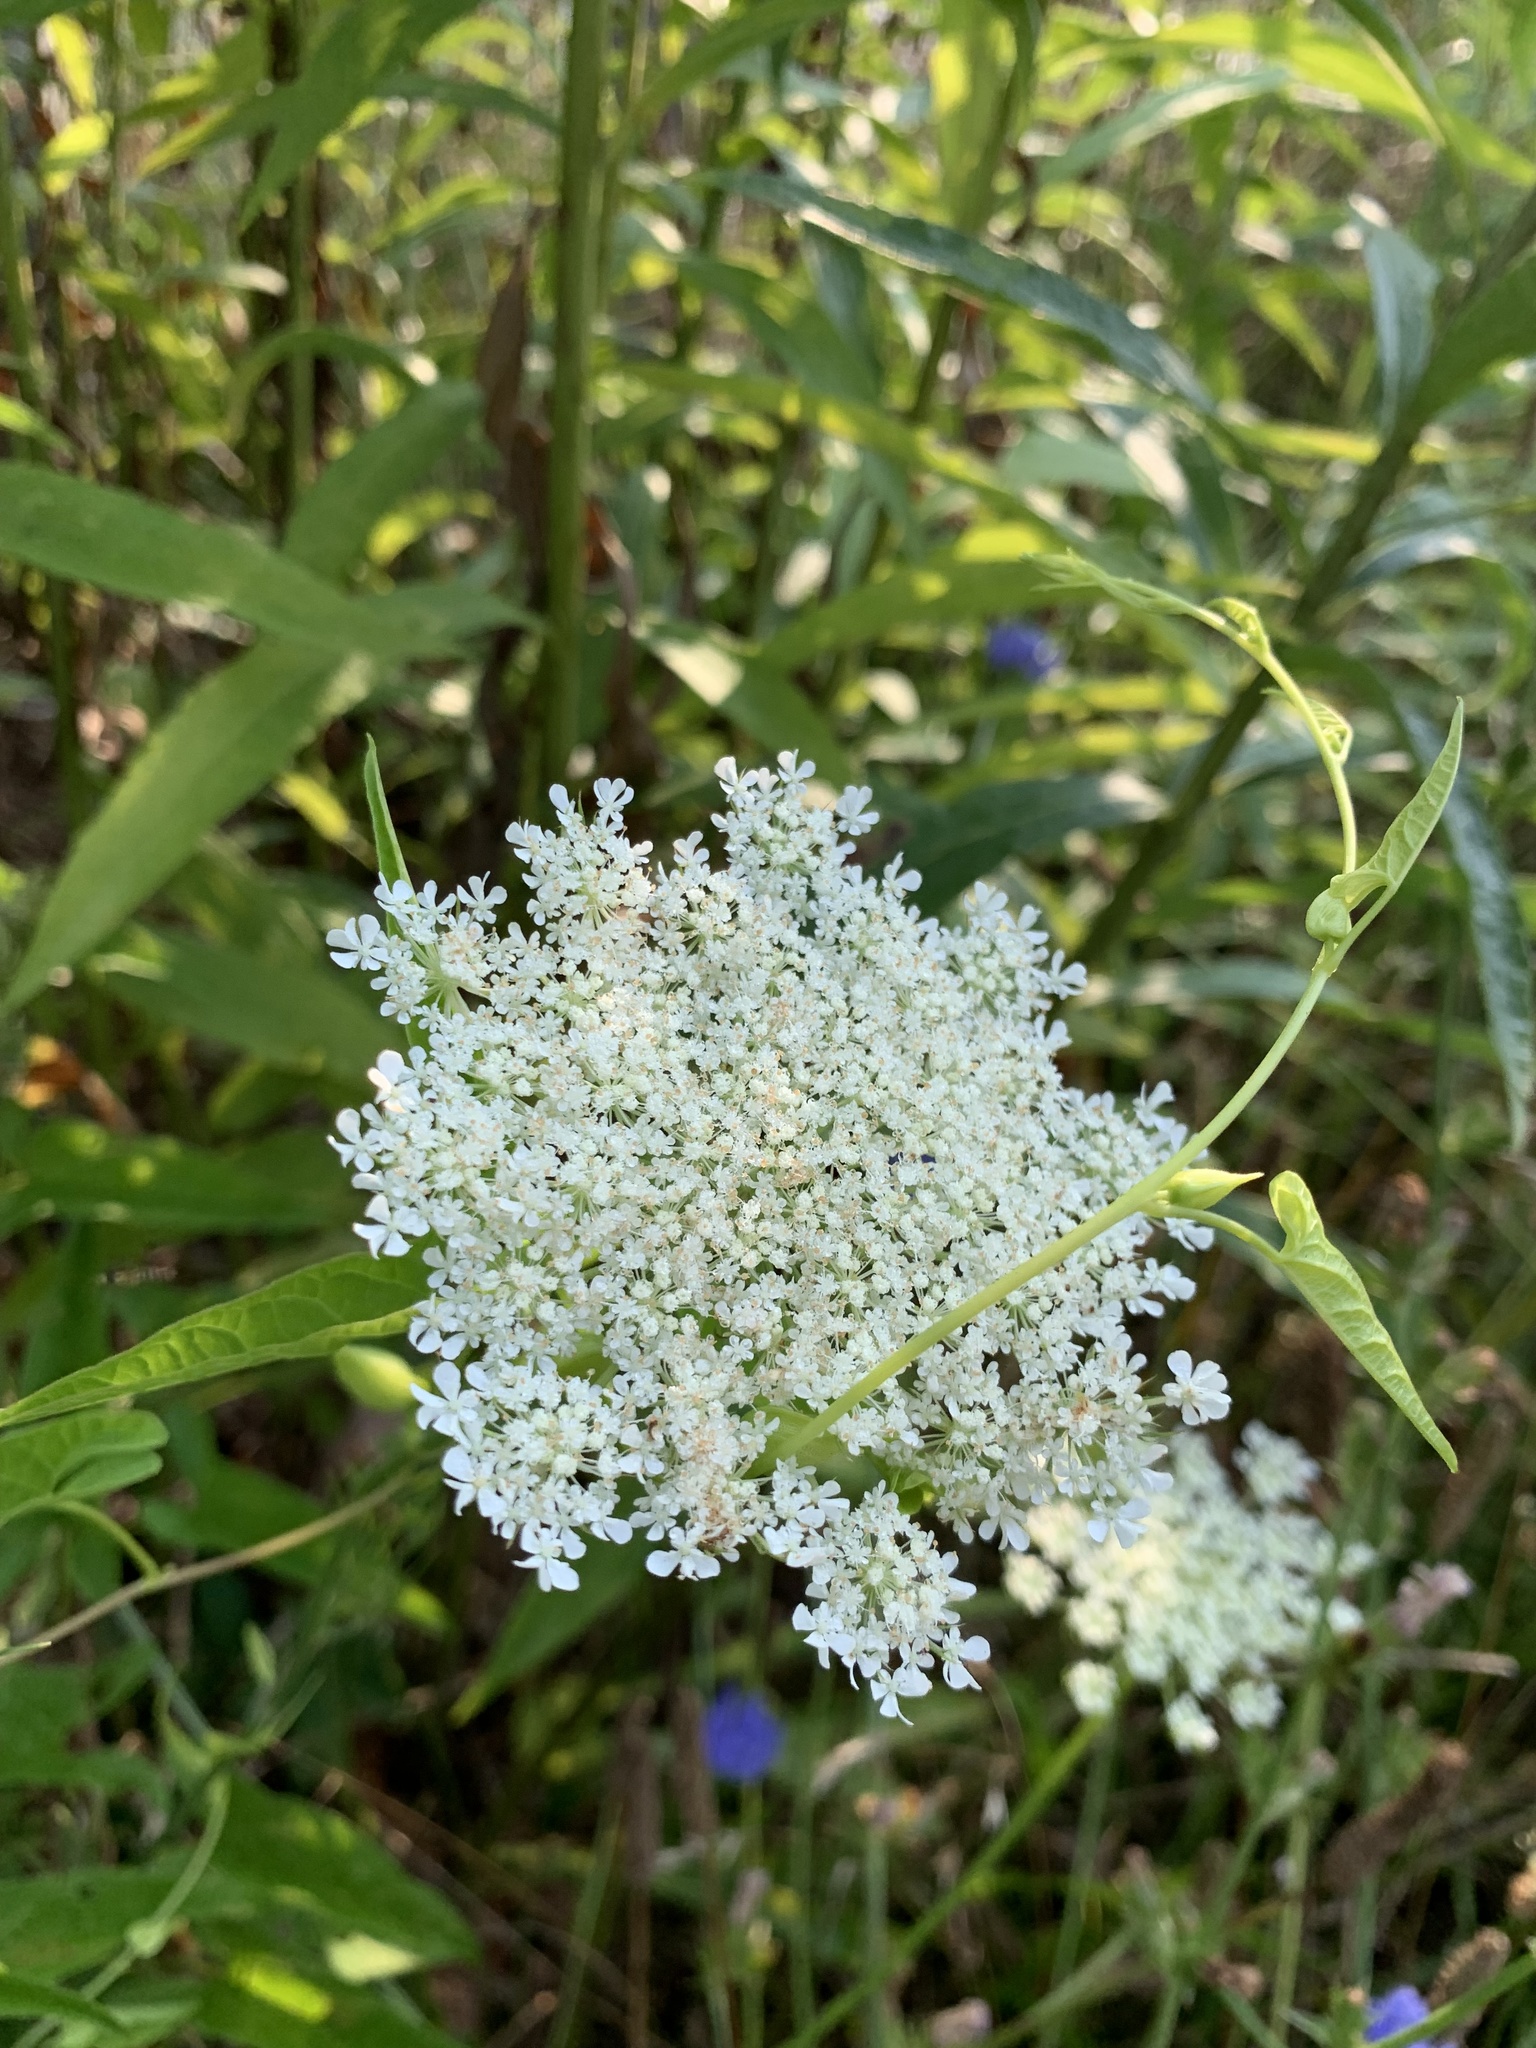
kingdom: Plantae
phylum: Tracheophyta
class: Magnoliopsida
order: Apiales
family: Apiaceae
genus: Daucus
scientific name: Daucus carota
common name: Wild carrot
